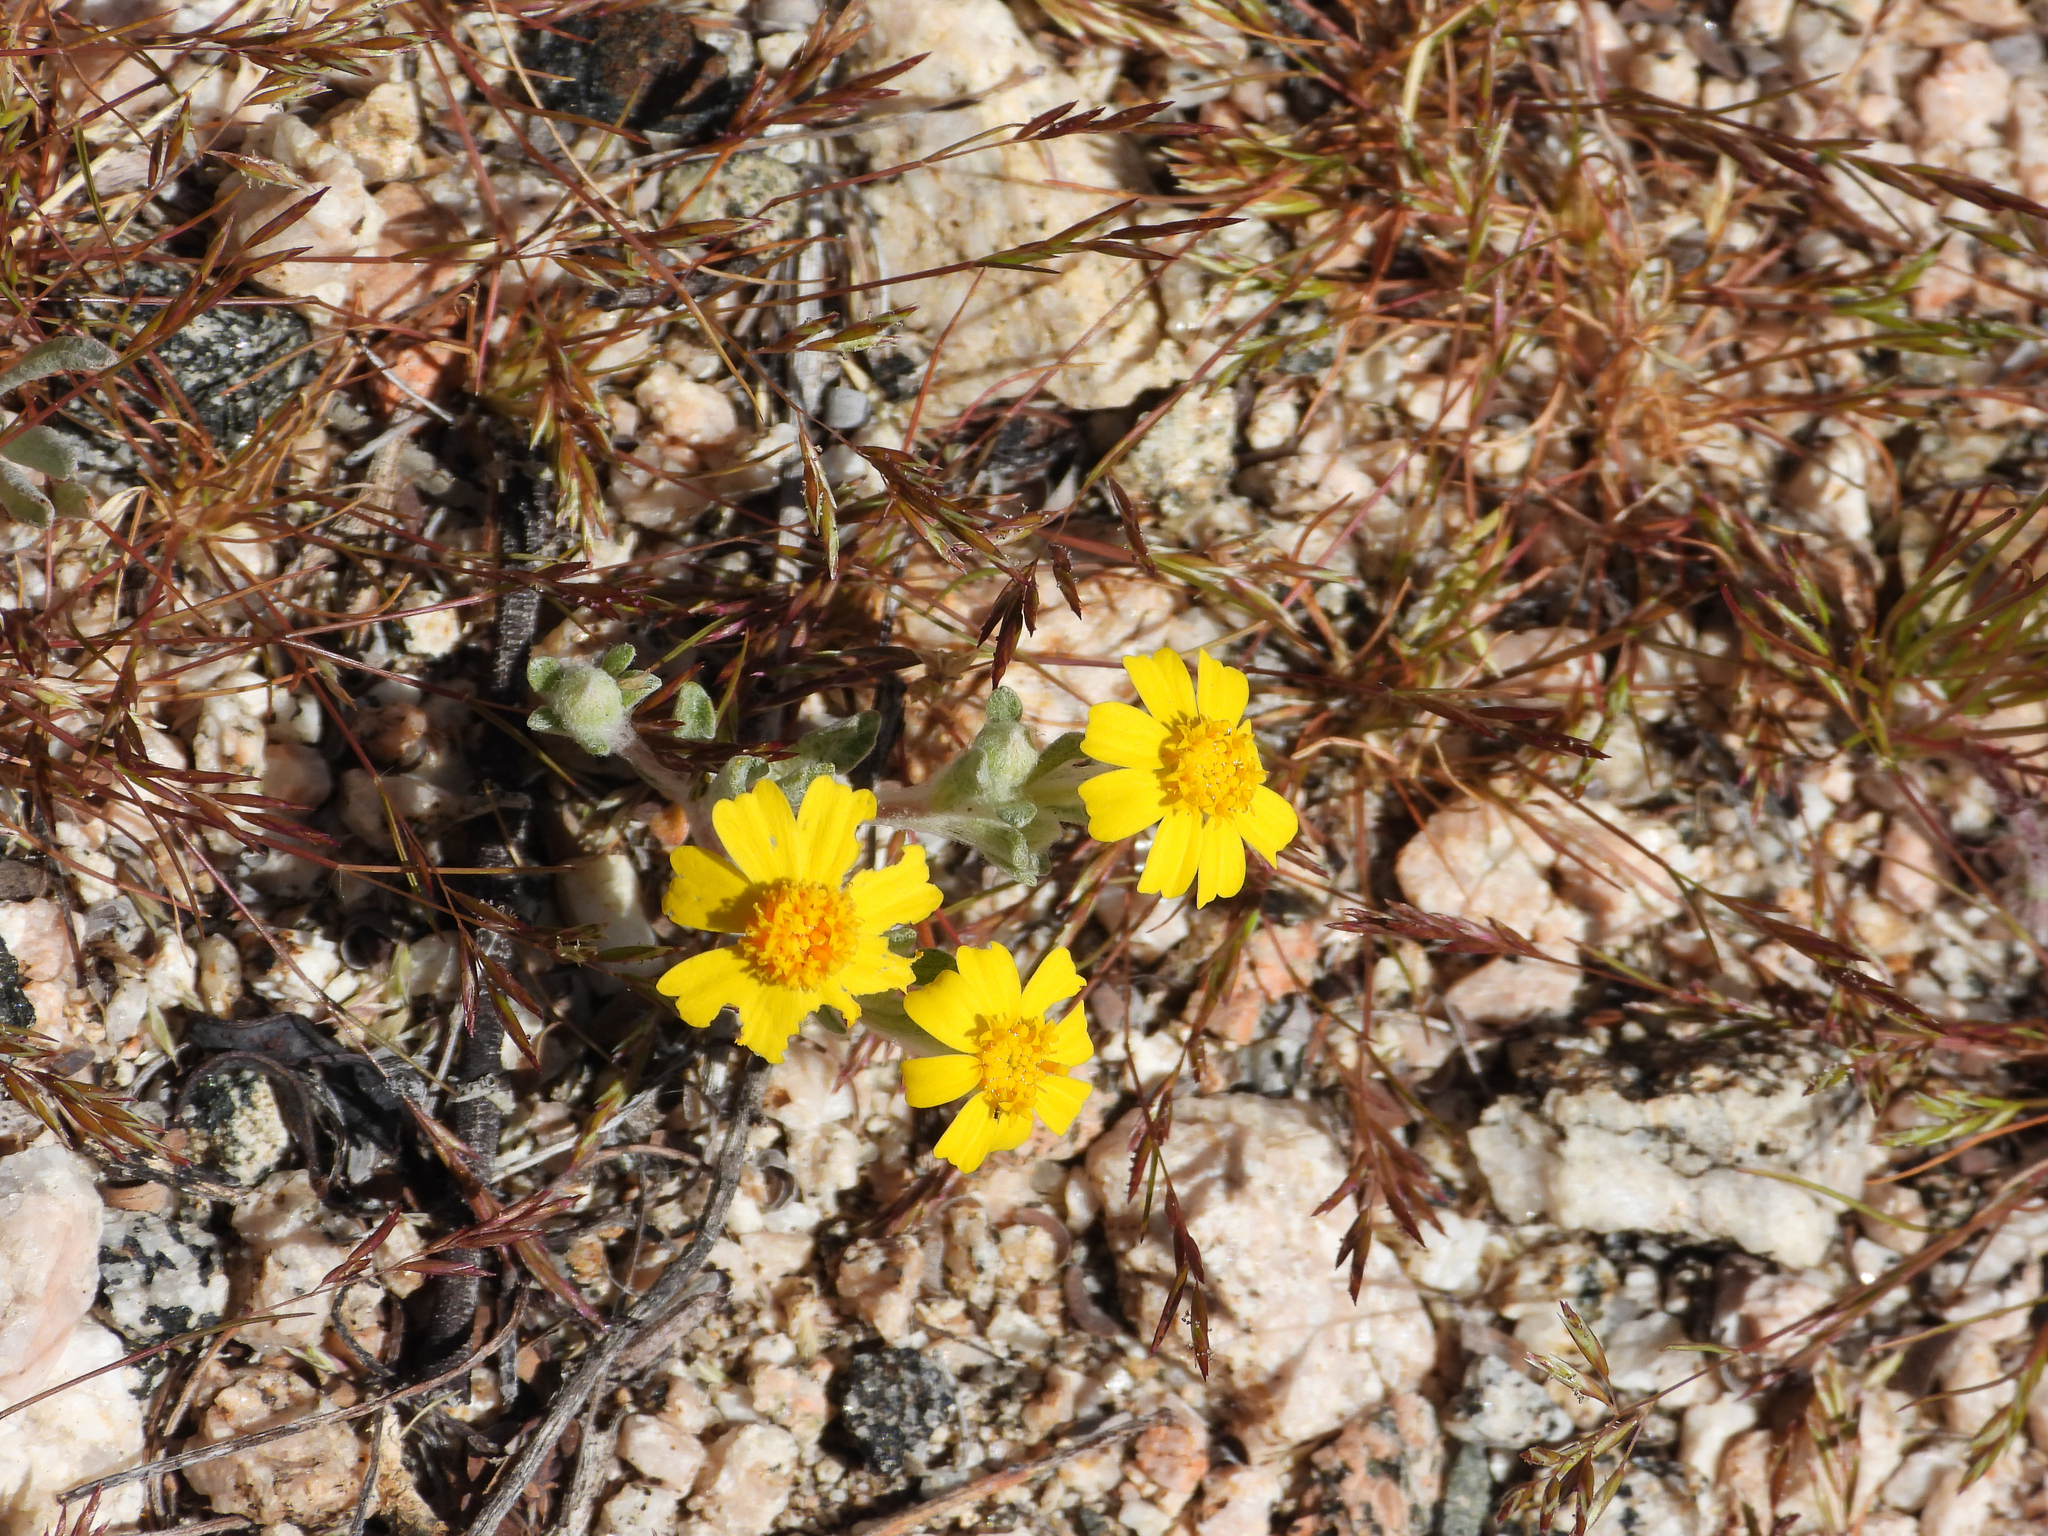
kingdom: Plantae
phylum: Tracheophyta
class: Magnoliopsida
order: Asterales
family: Asteraceae
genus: Eriophyllum
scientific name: Eriophyllum wallacei
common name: Wallace's woolly daisy
